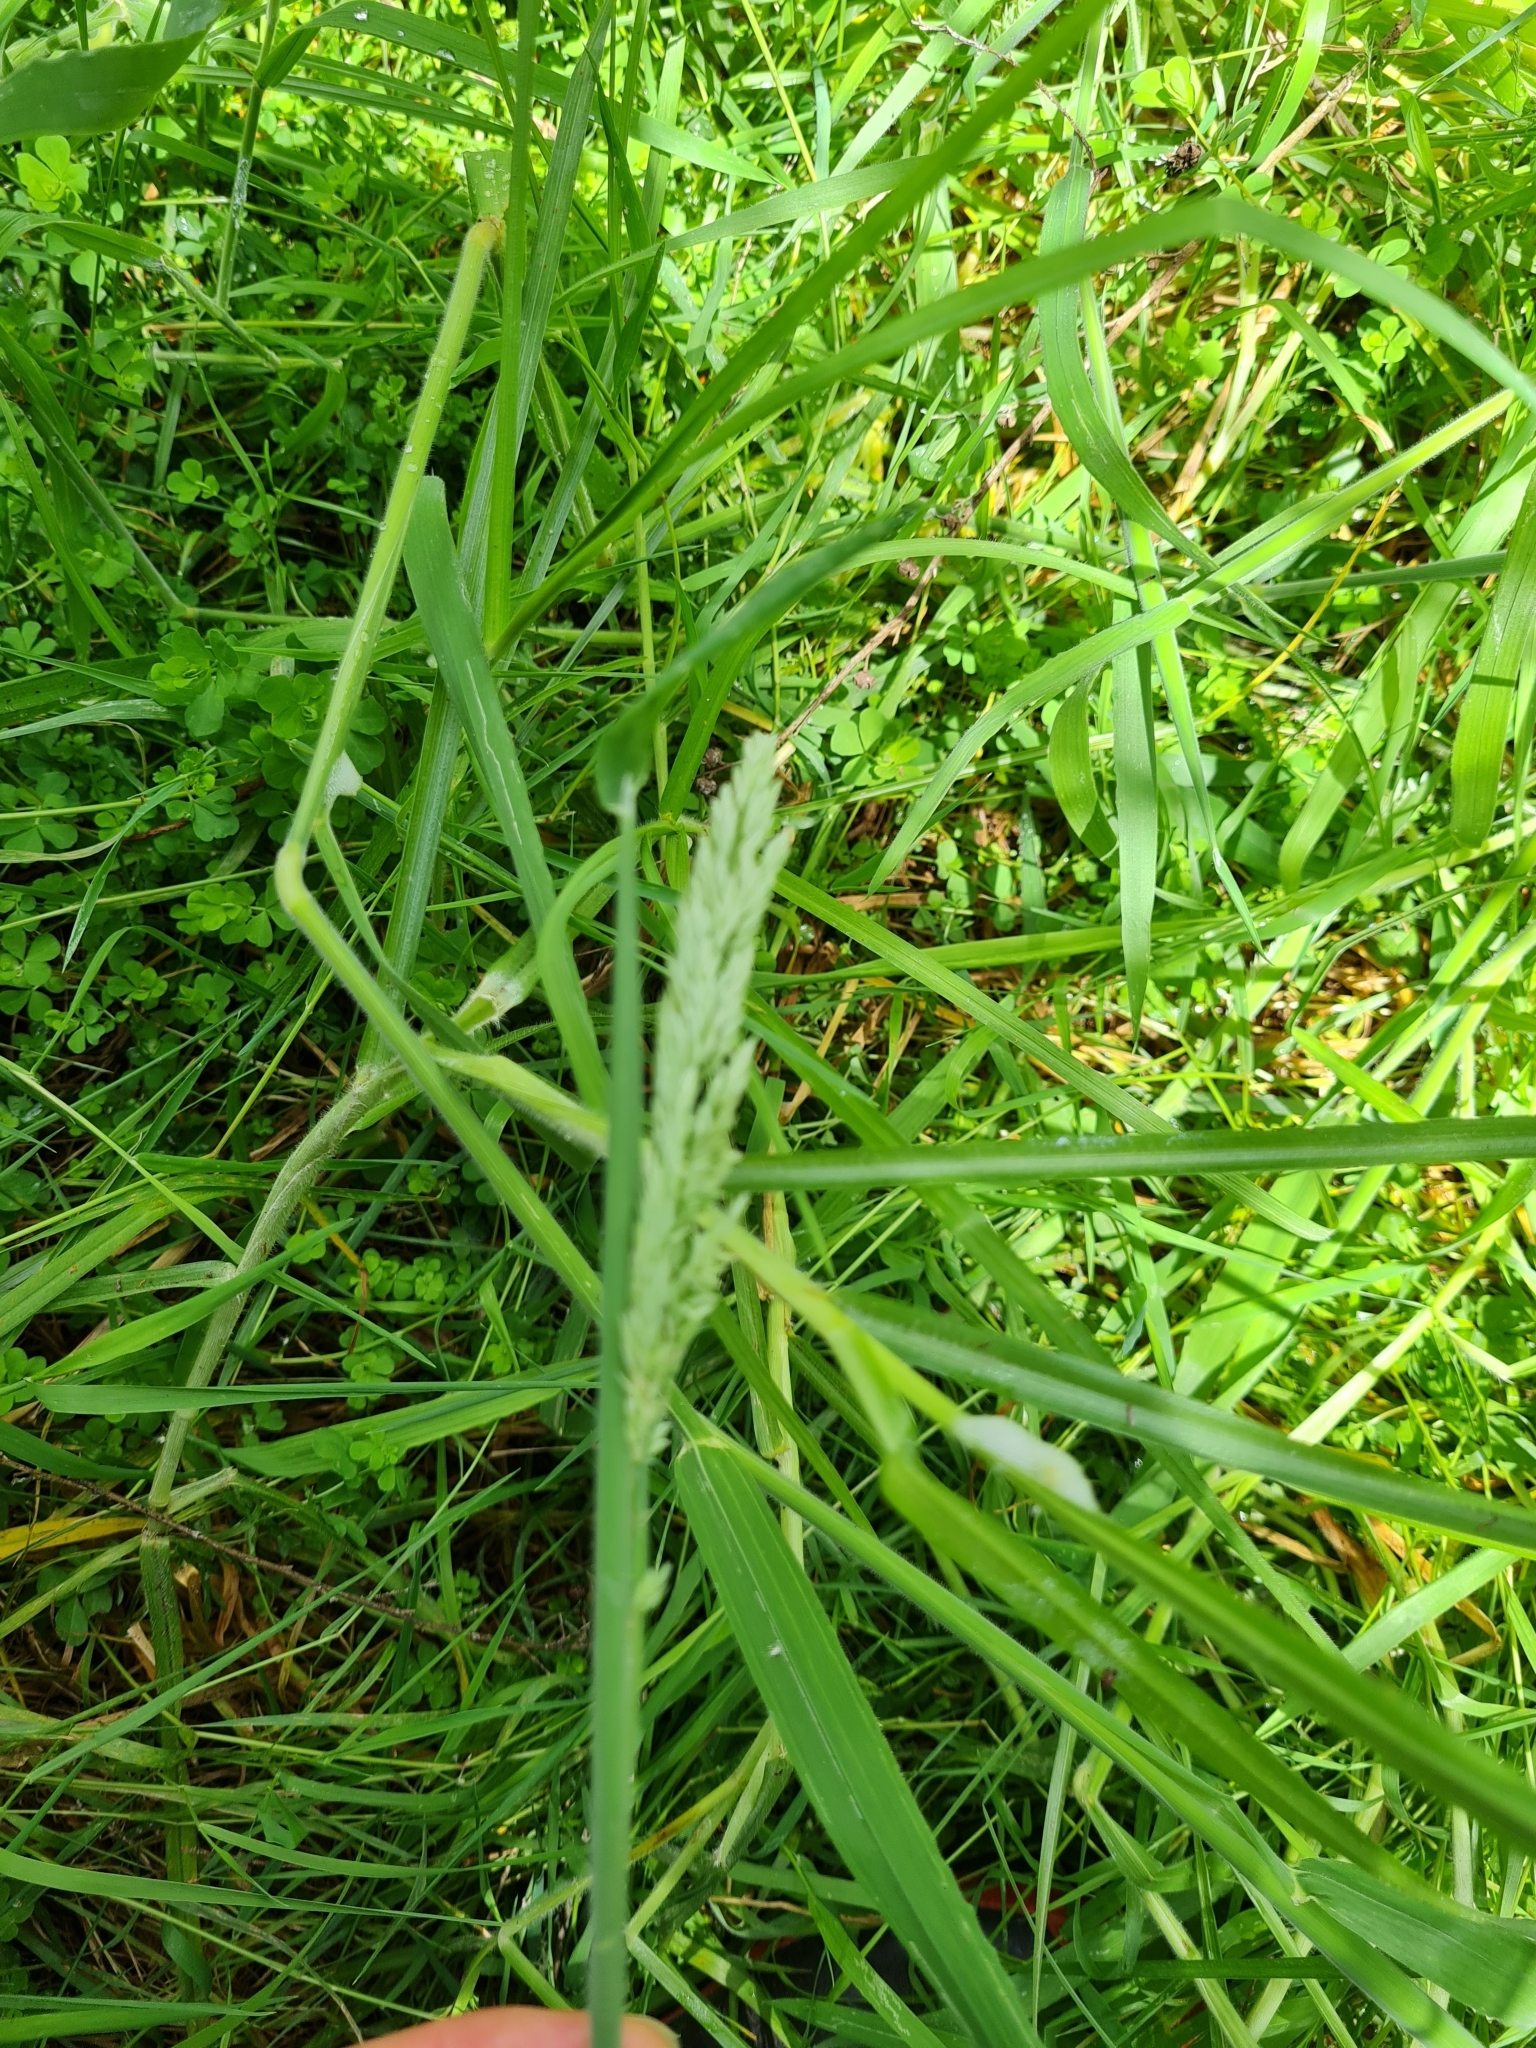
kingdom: Plantae
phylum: Tracheophyta
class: Liliopsida
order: Poales
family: Poaceae
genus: Holcus
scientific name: Holcus lanatus
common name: Yorkshire-fog
